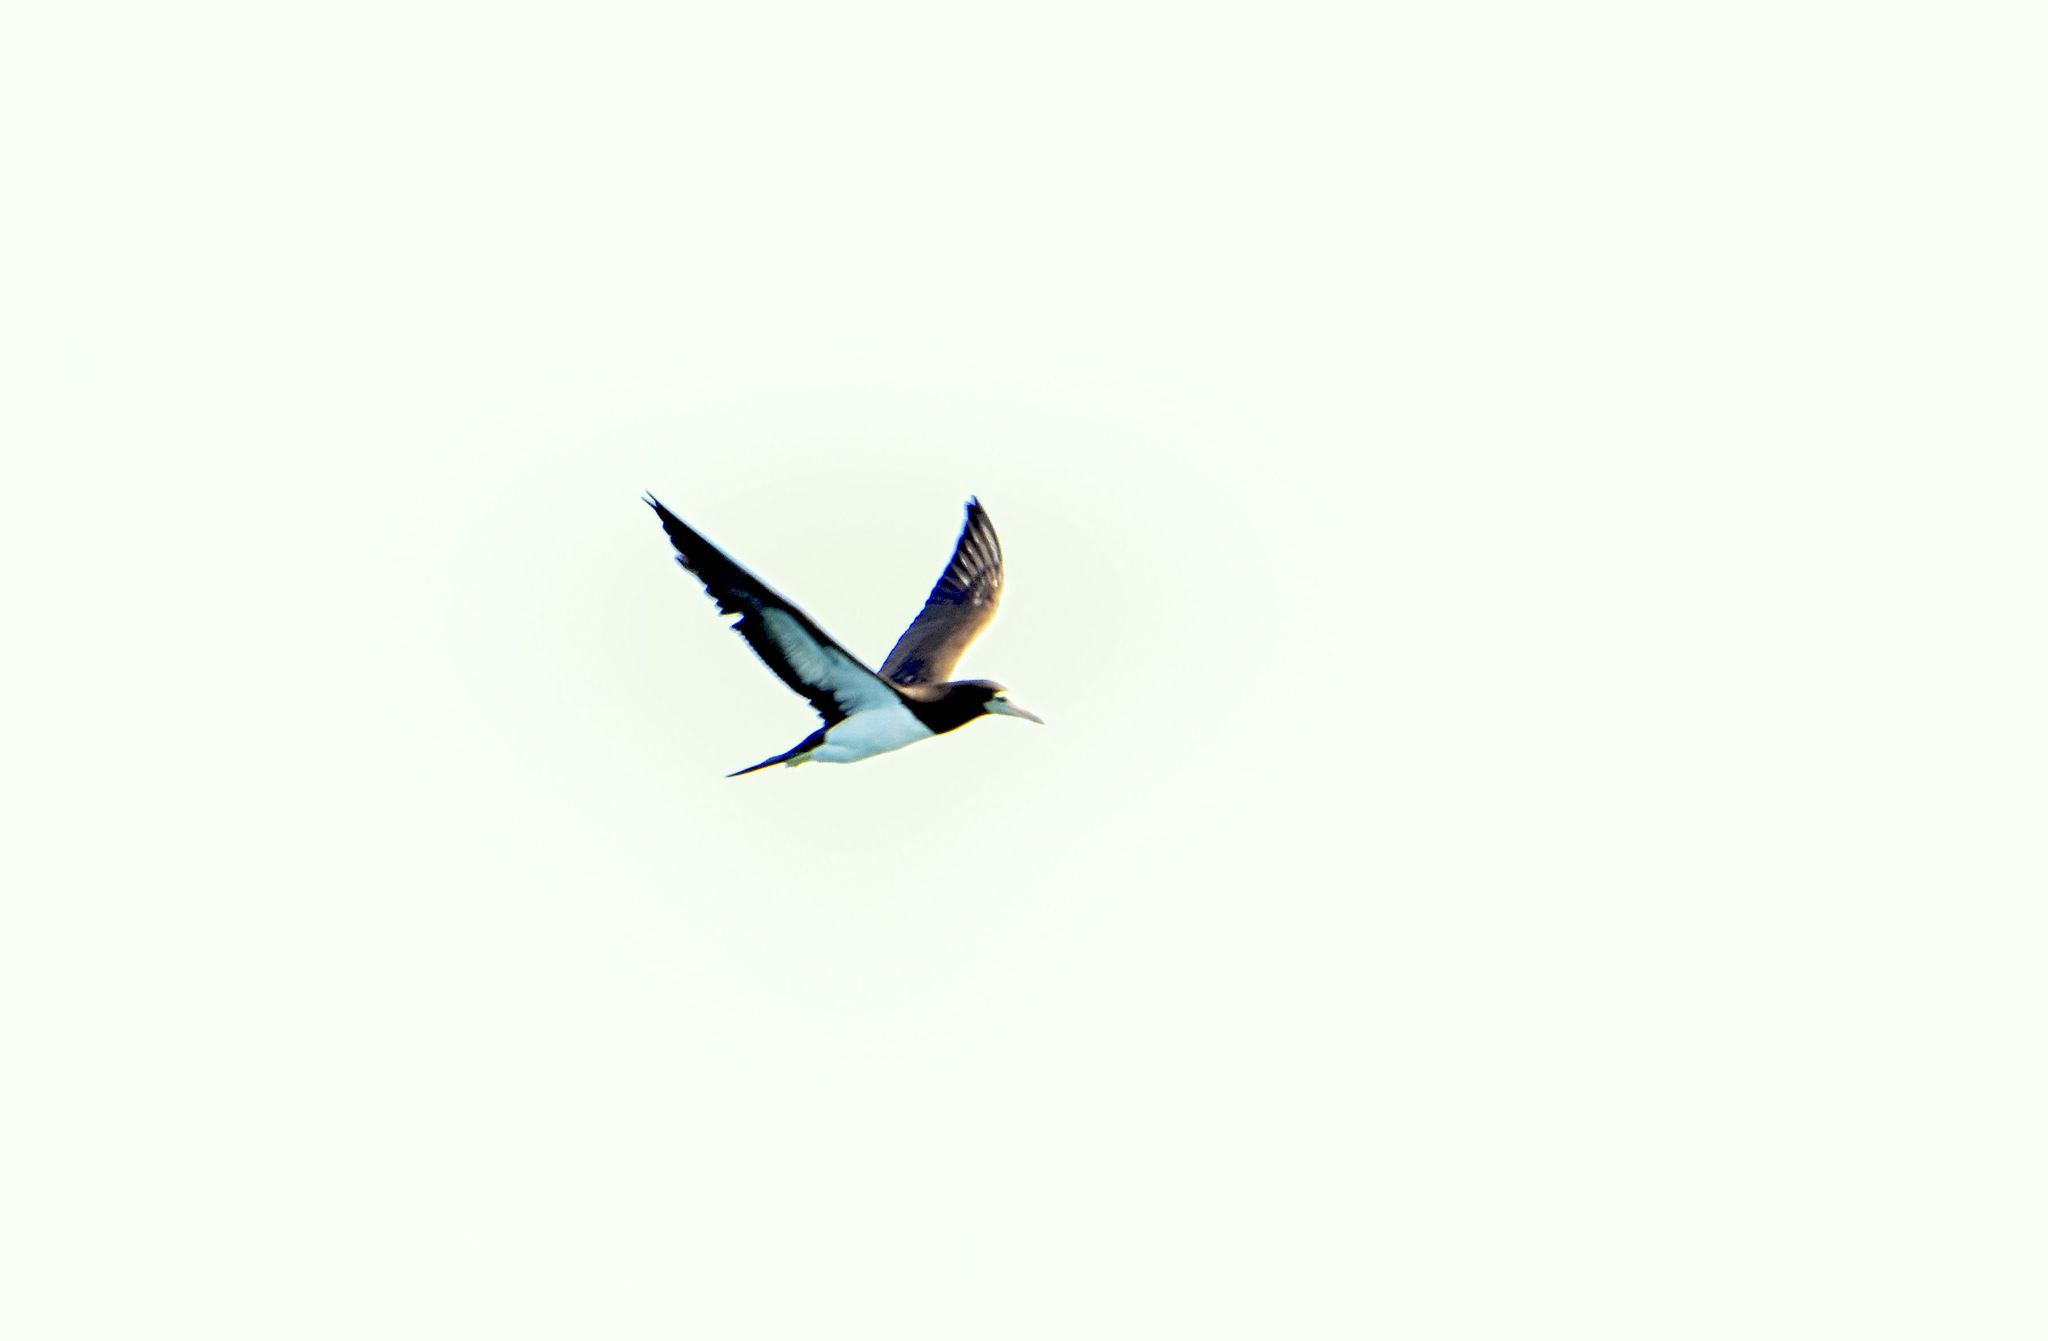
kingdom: Animalia
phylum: Chordata
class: Aves
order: Suliformes
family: Sulidae
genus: Sula
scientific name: Sula leucogaster
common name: Brown booby
